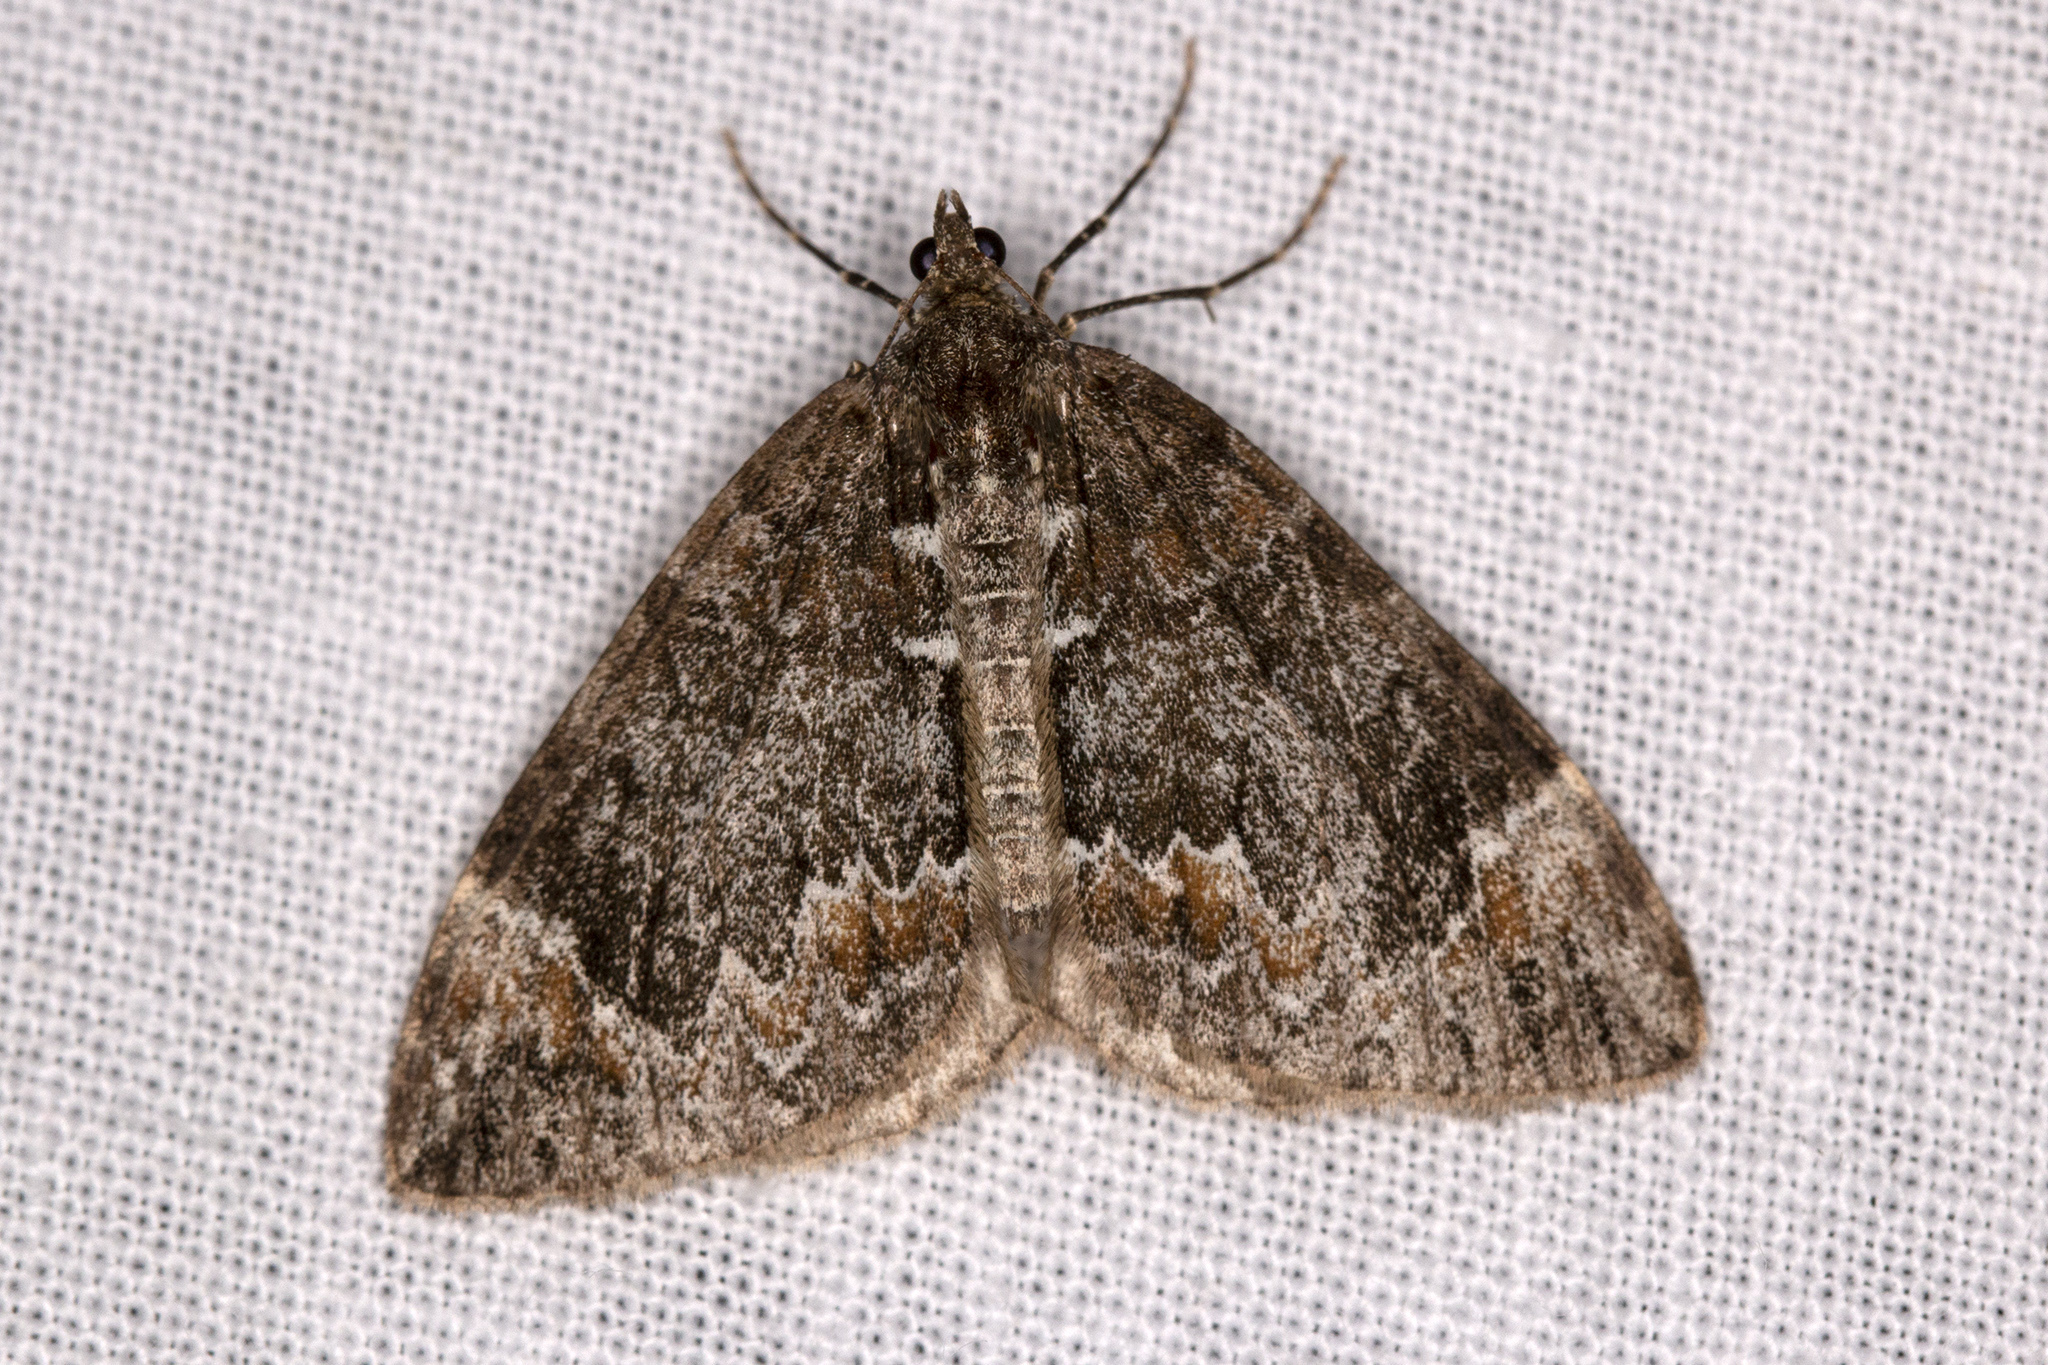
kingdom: Animalia
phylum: Arthropoda
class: Insecta
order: Lepidoptera
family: Geometridae
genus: Dysstroma
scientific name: Dysstroma truncata
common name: Common marbled carpet
